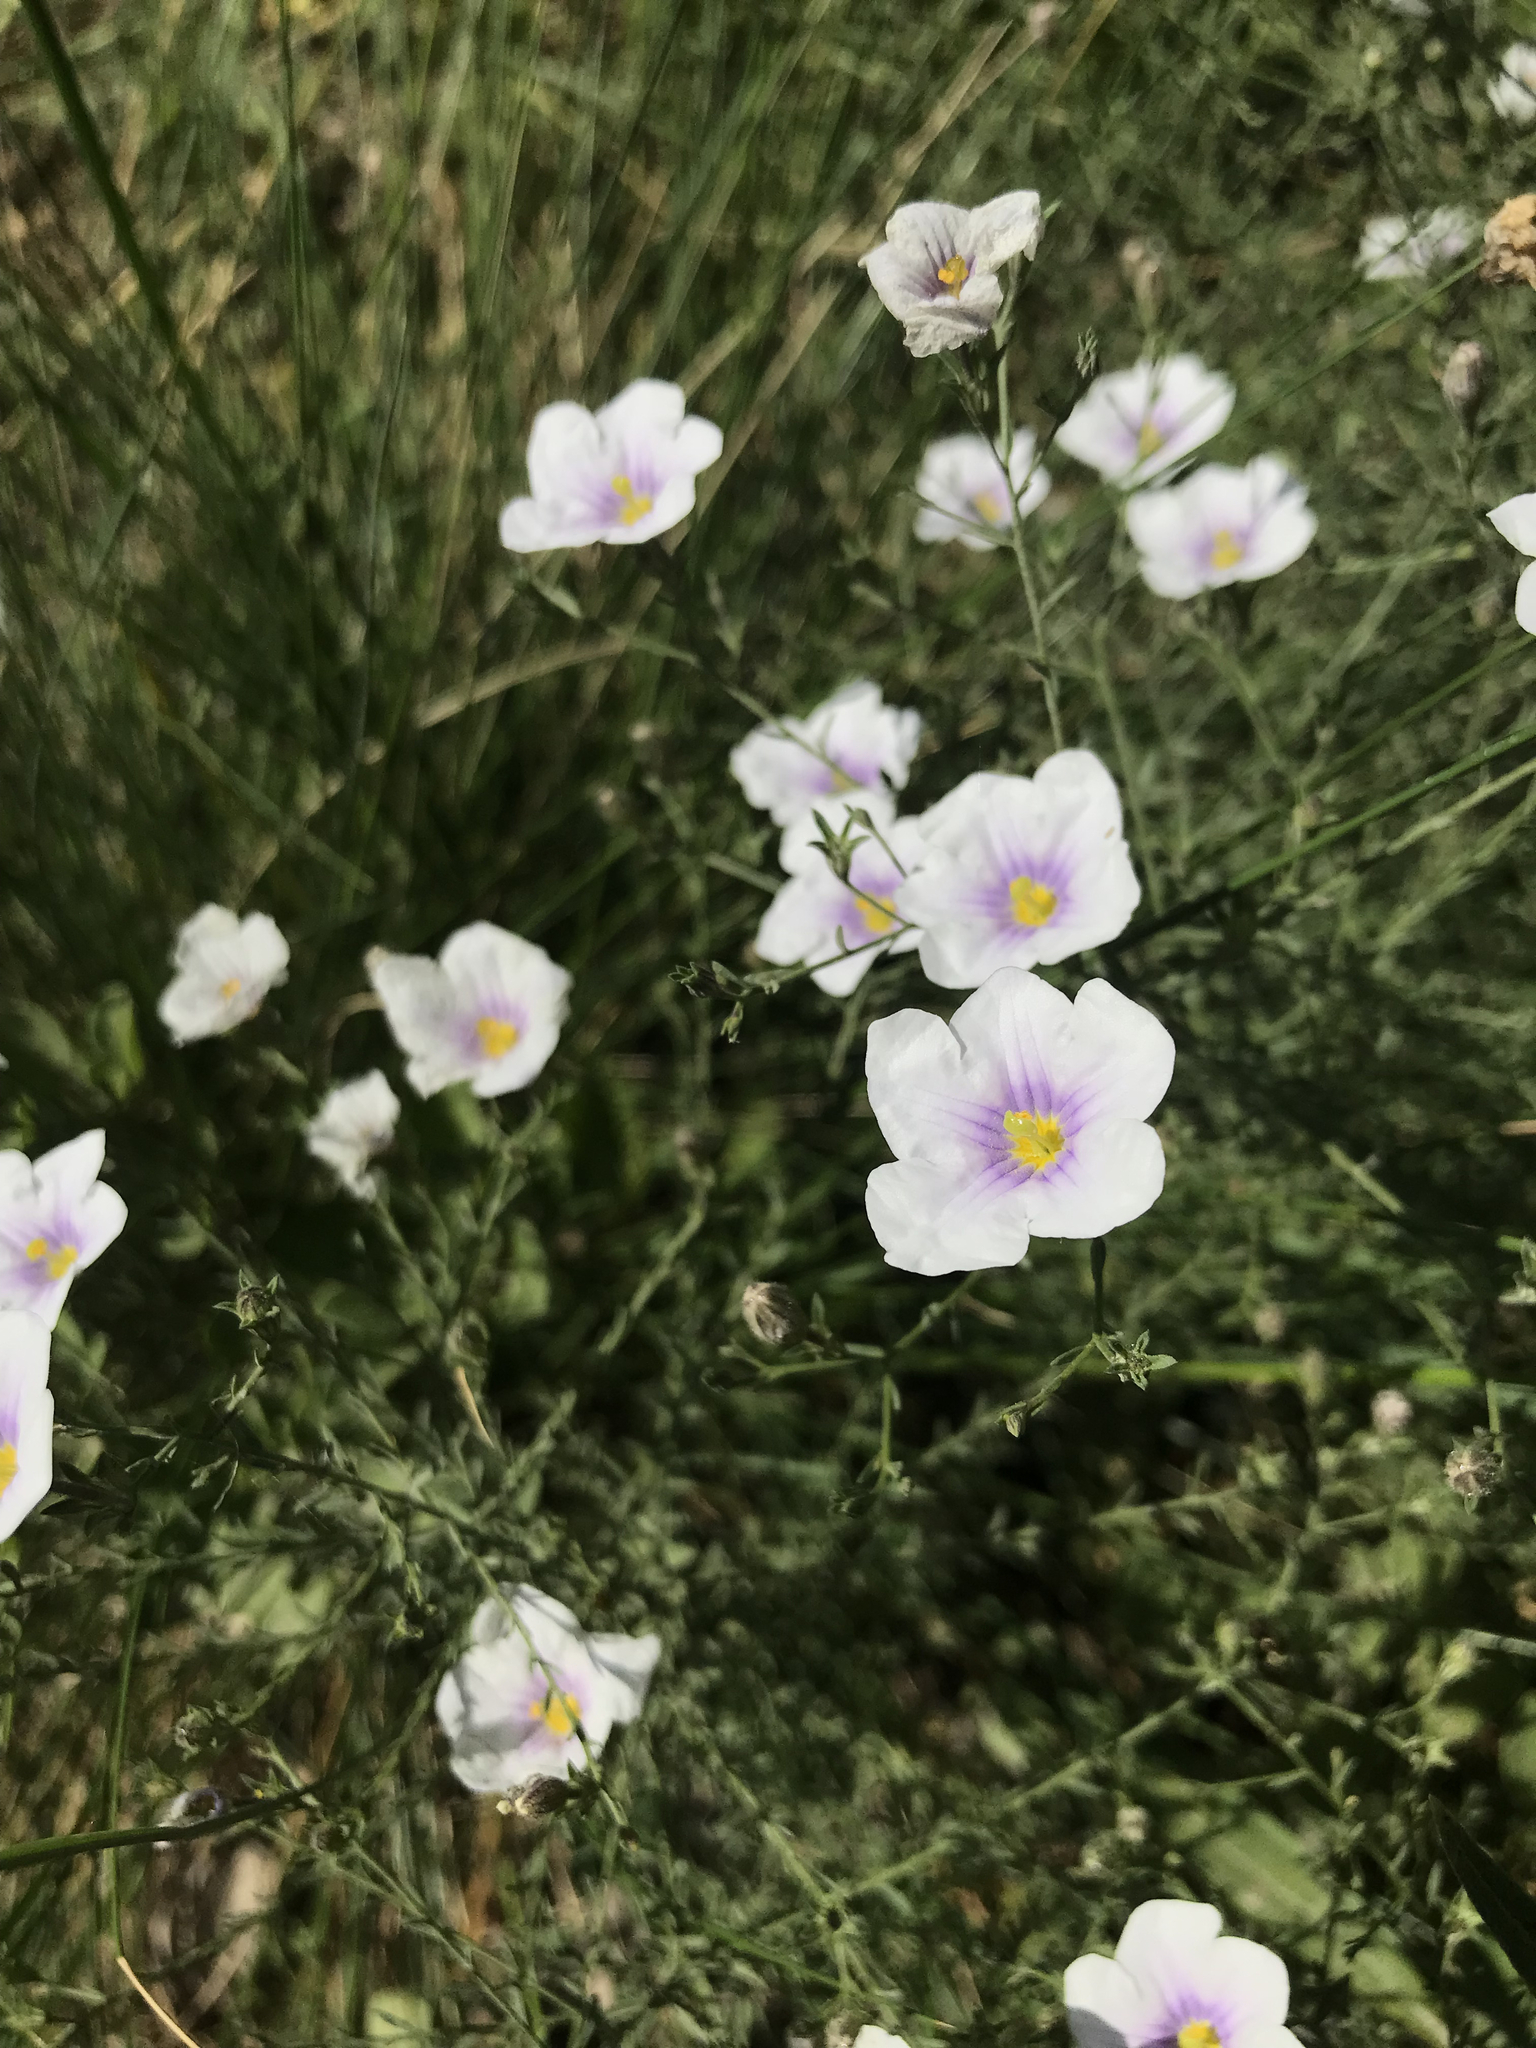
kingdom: Plantae
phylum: Tracheophyta
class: Magnoliopsida
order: Solanales
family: Solanaceae
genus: Nierembergia
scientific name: Nierembergia scoparia
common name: Broom cupflower
